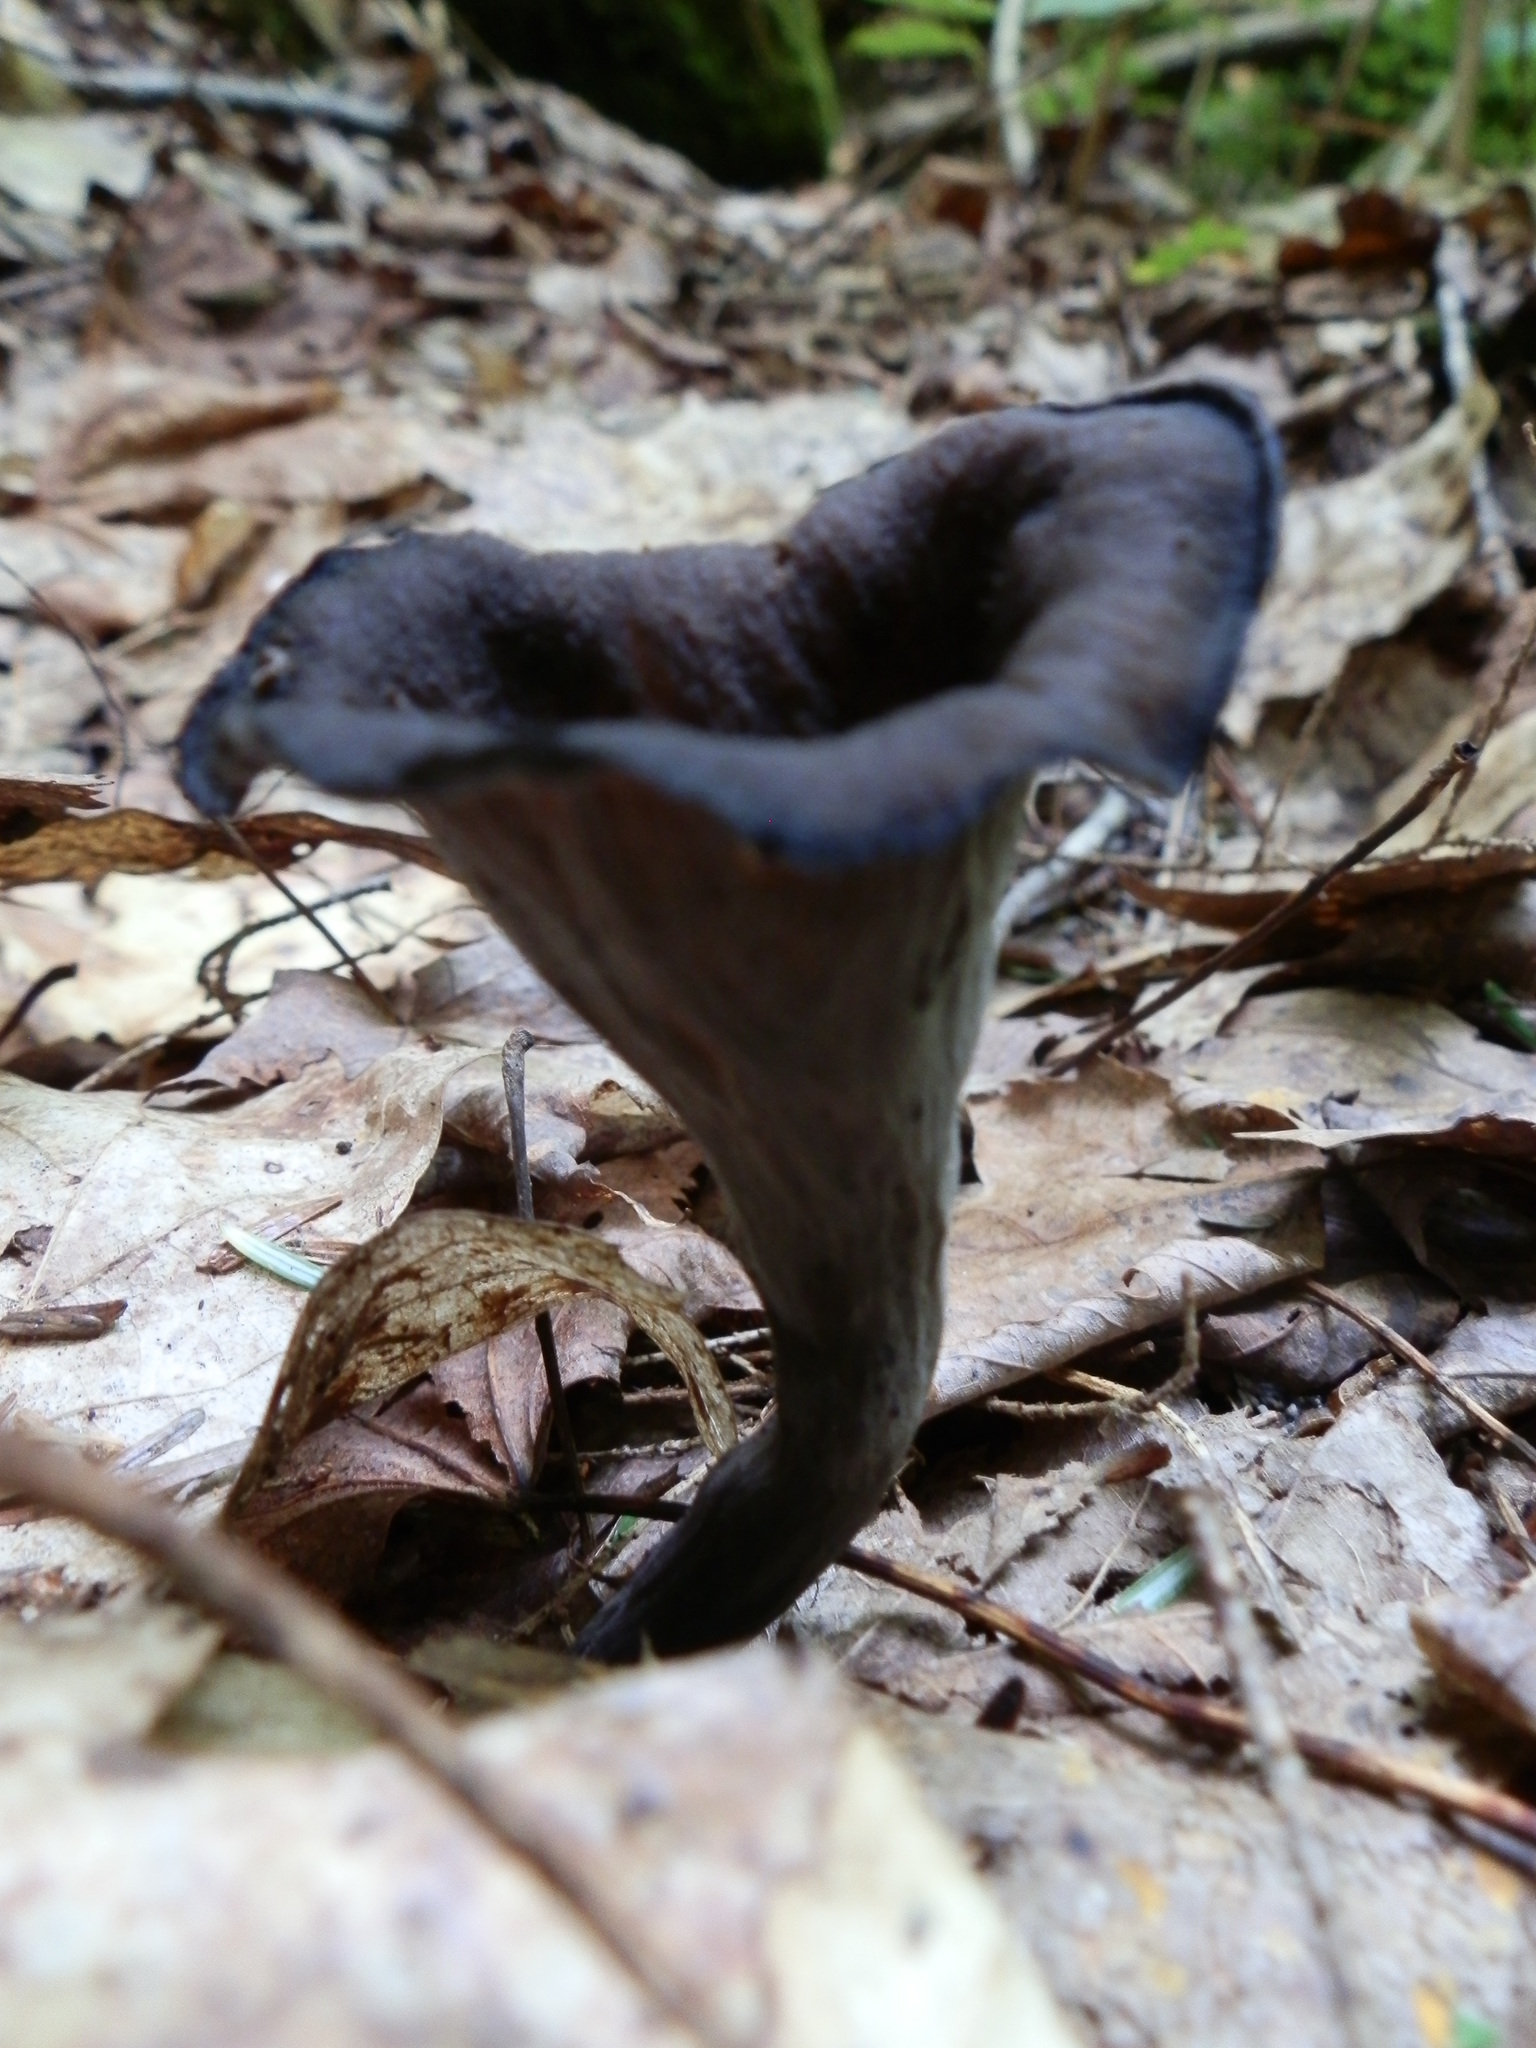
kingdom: Fungi
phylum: Basidiomycota
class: Agaricomycetes
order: Cantharellales
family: Hydnaceae
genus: Craterellus
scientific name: Craterellus cornucopioides
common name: Horn of plenty
